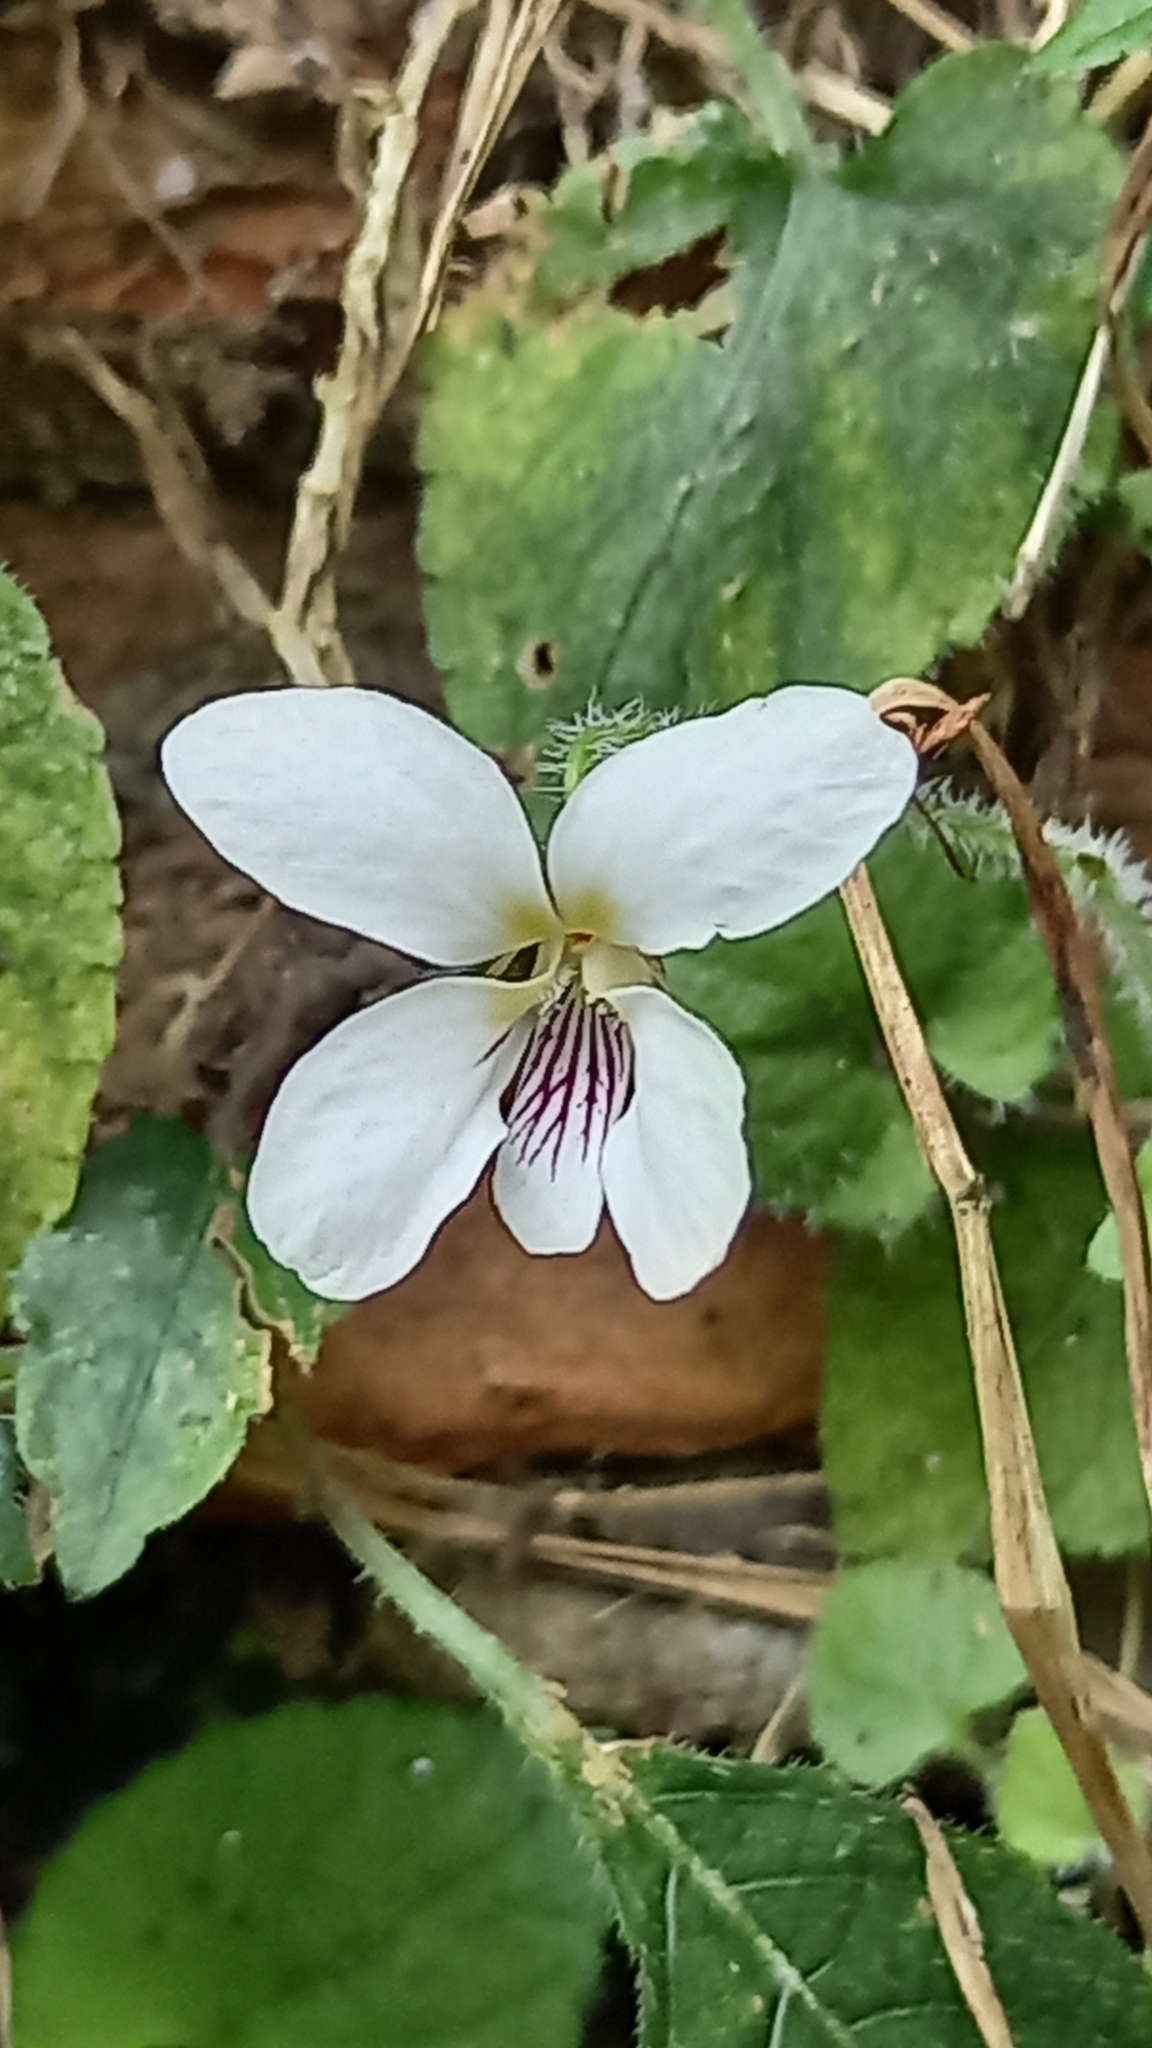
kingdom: Plantae
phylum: Tracheophyta
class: Magnoliopsida
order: Malpighiales
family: Violaceae
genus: Viola
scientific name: Viola adenothrix
